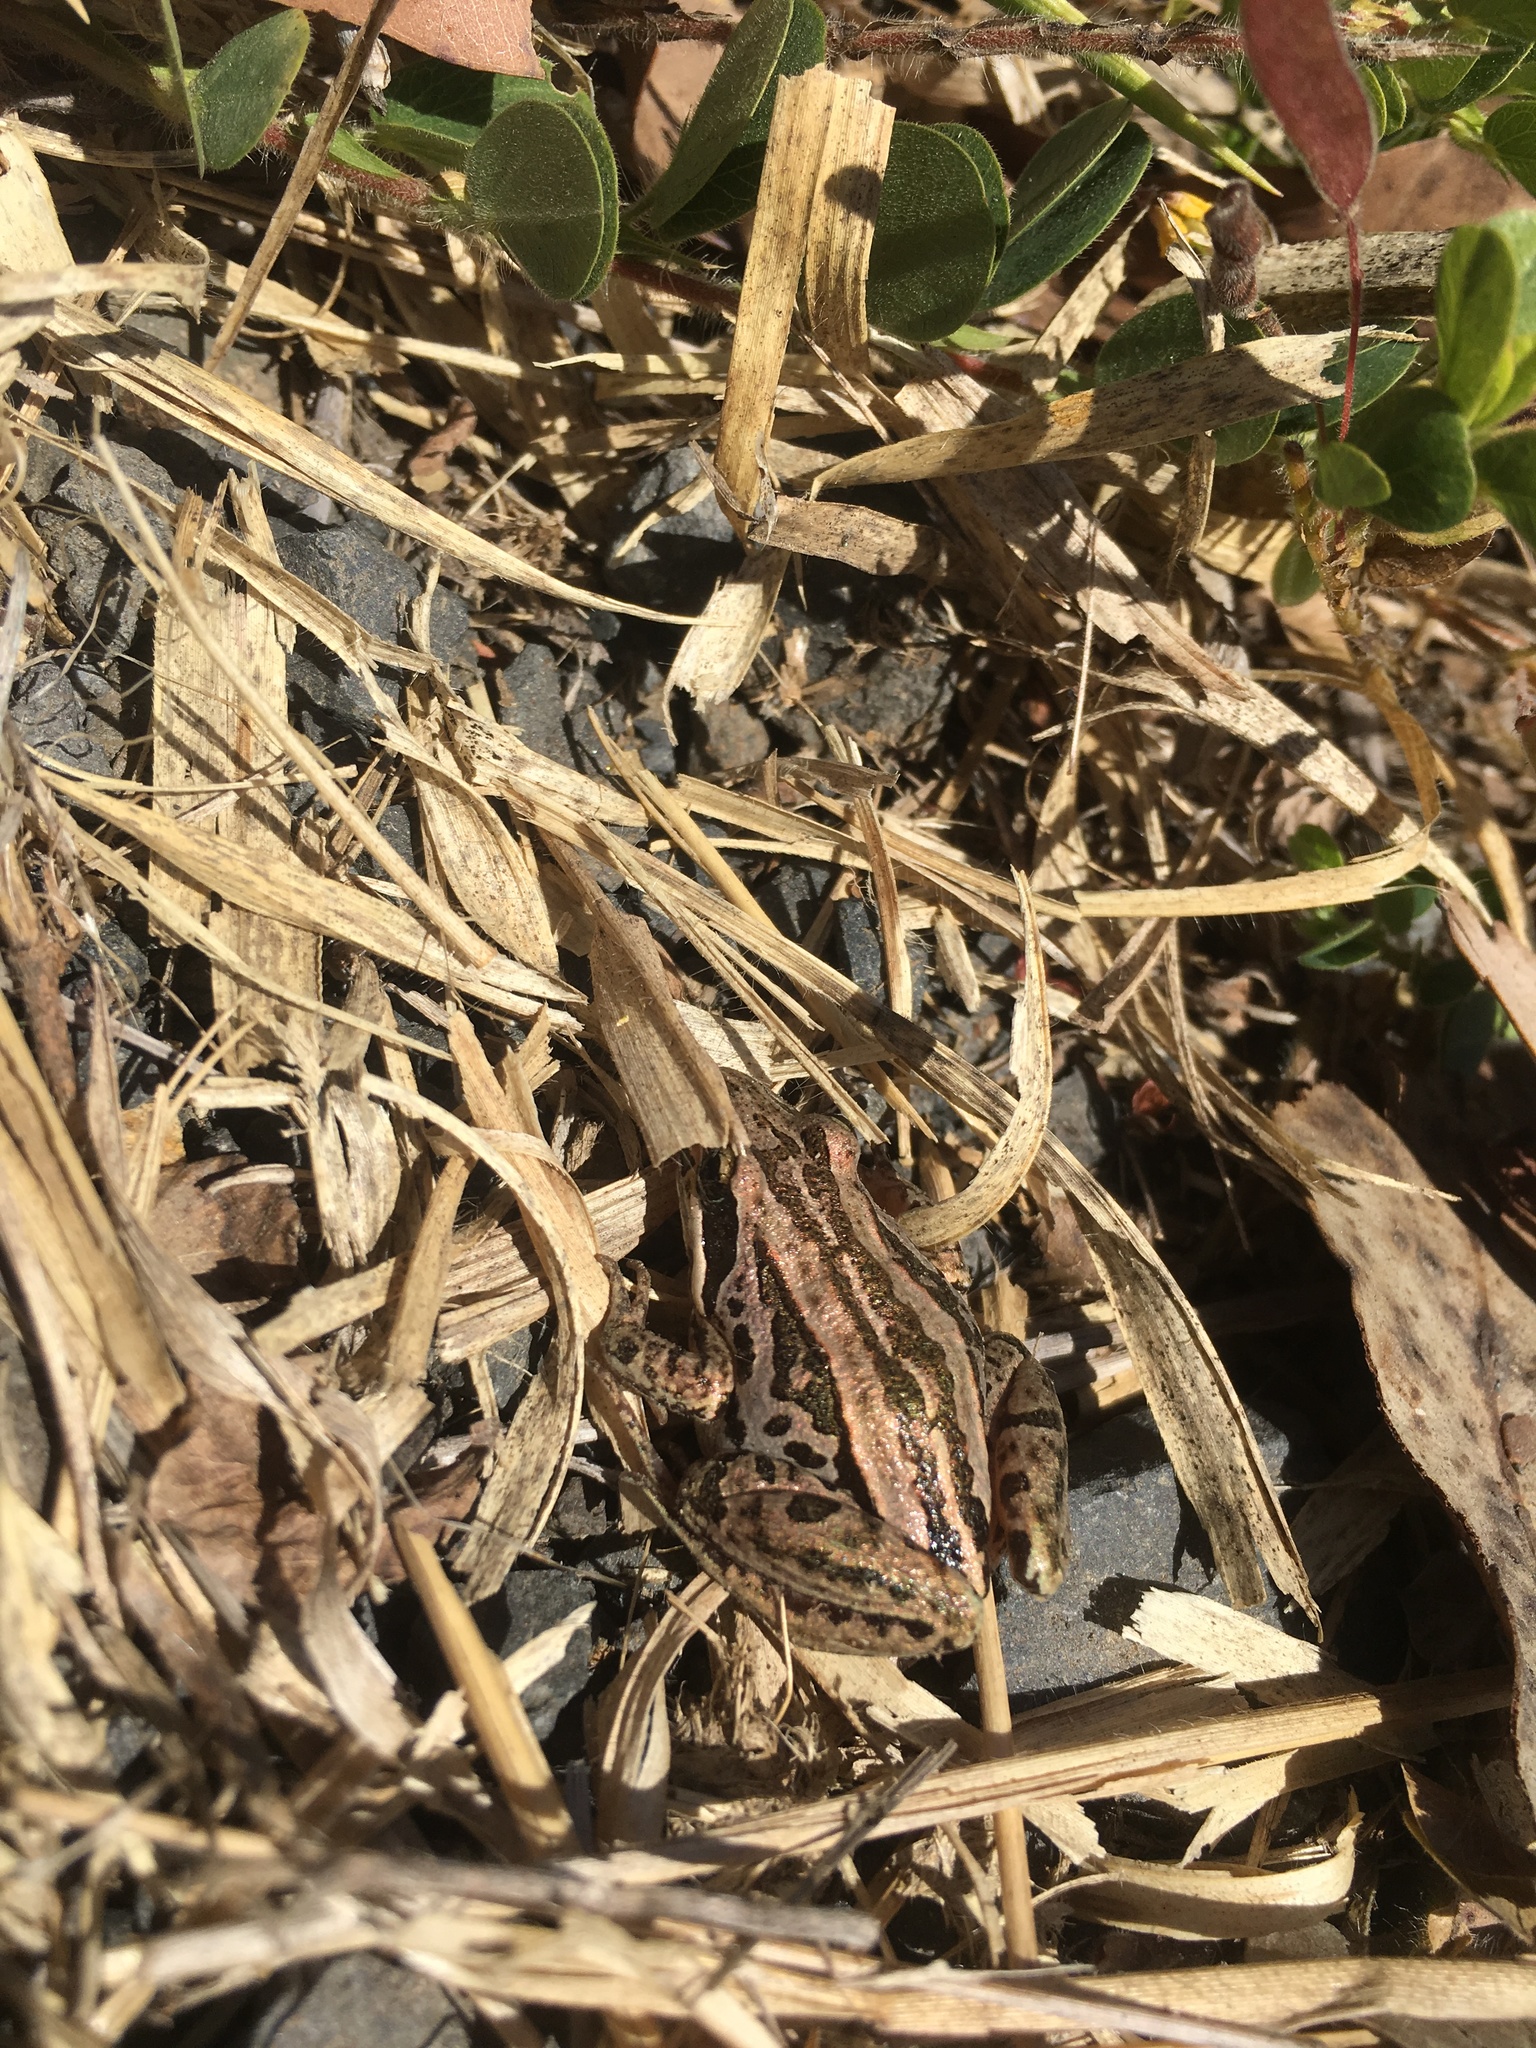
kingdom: Animalia
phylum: Chordata
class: Amphibia
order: Anura
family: Limnodynastidae
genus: Limnodynastes
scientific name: Limnodynastes peronii
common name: Brown frog
